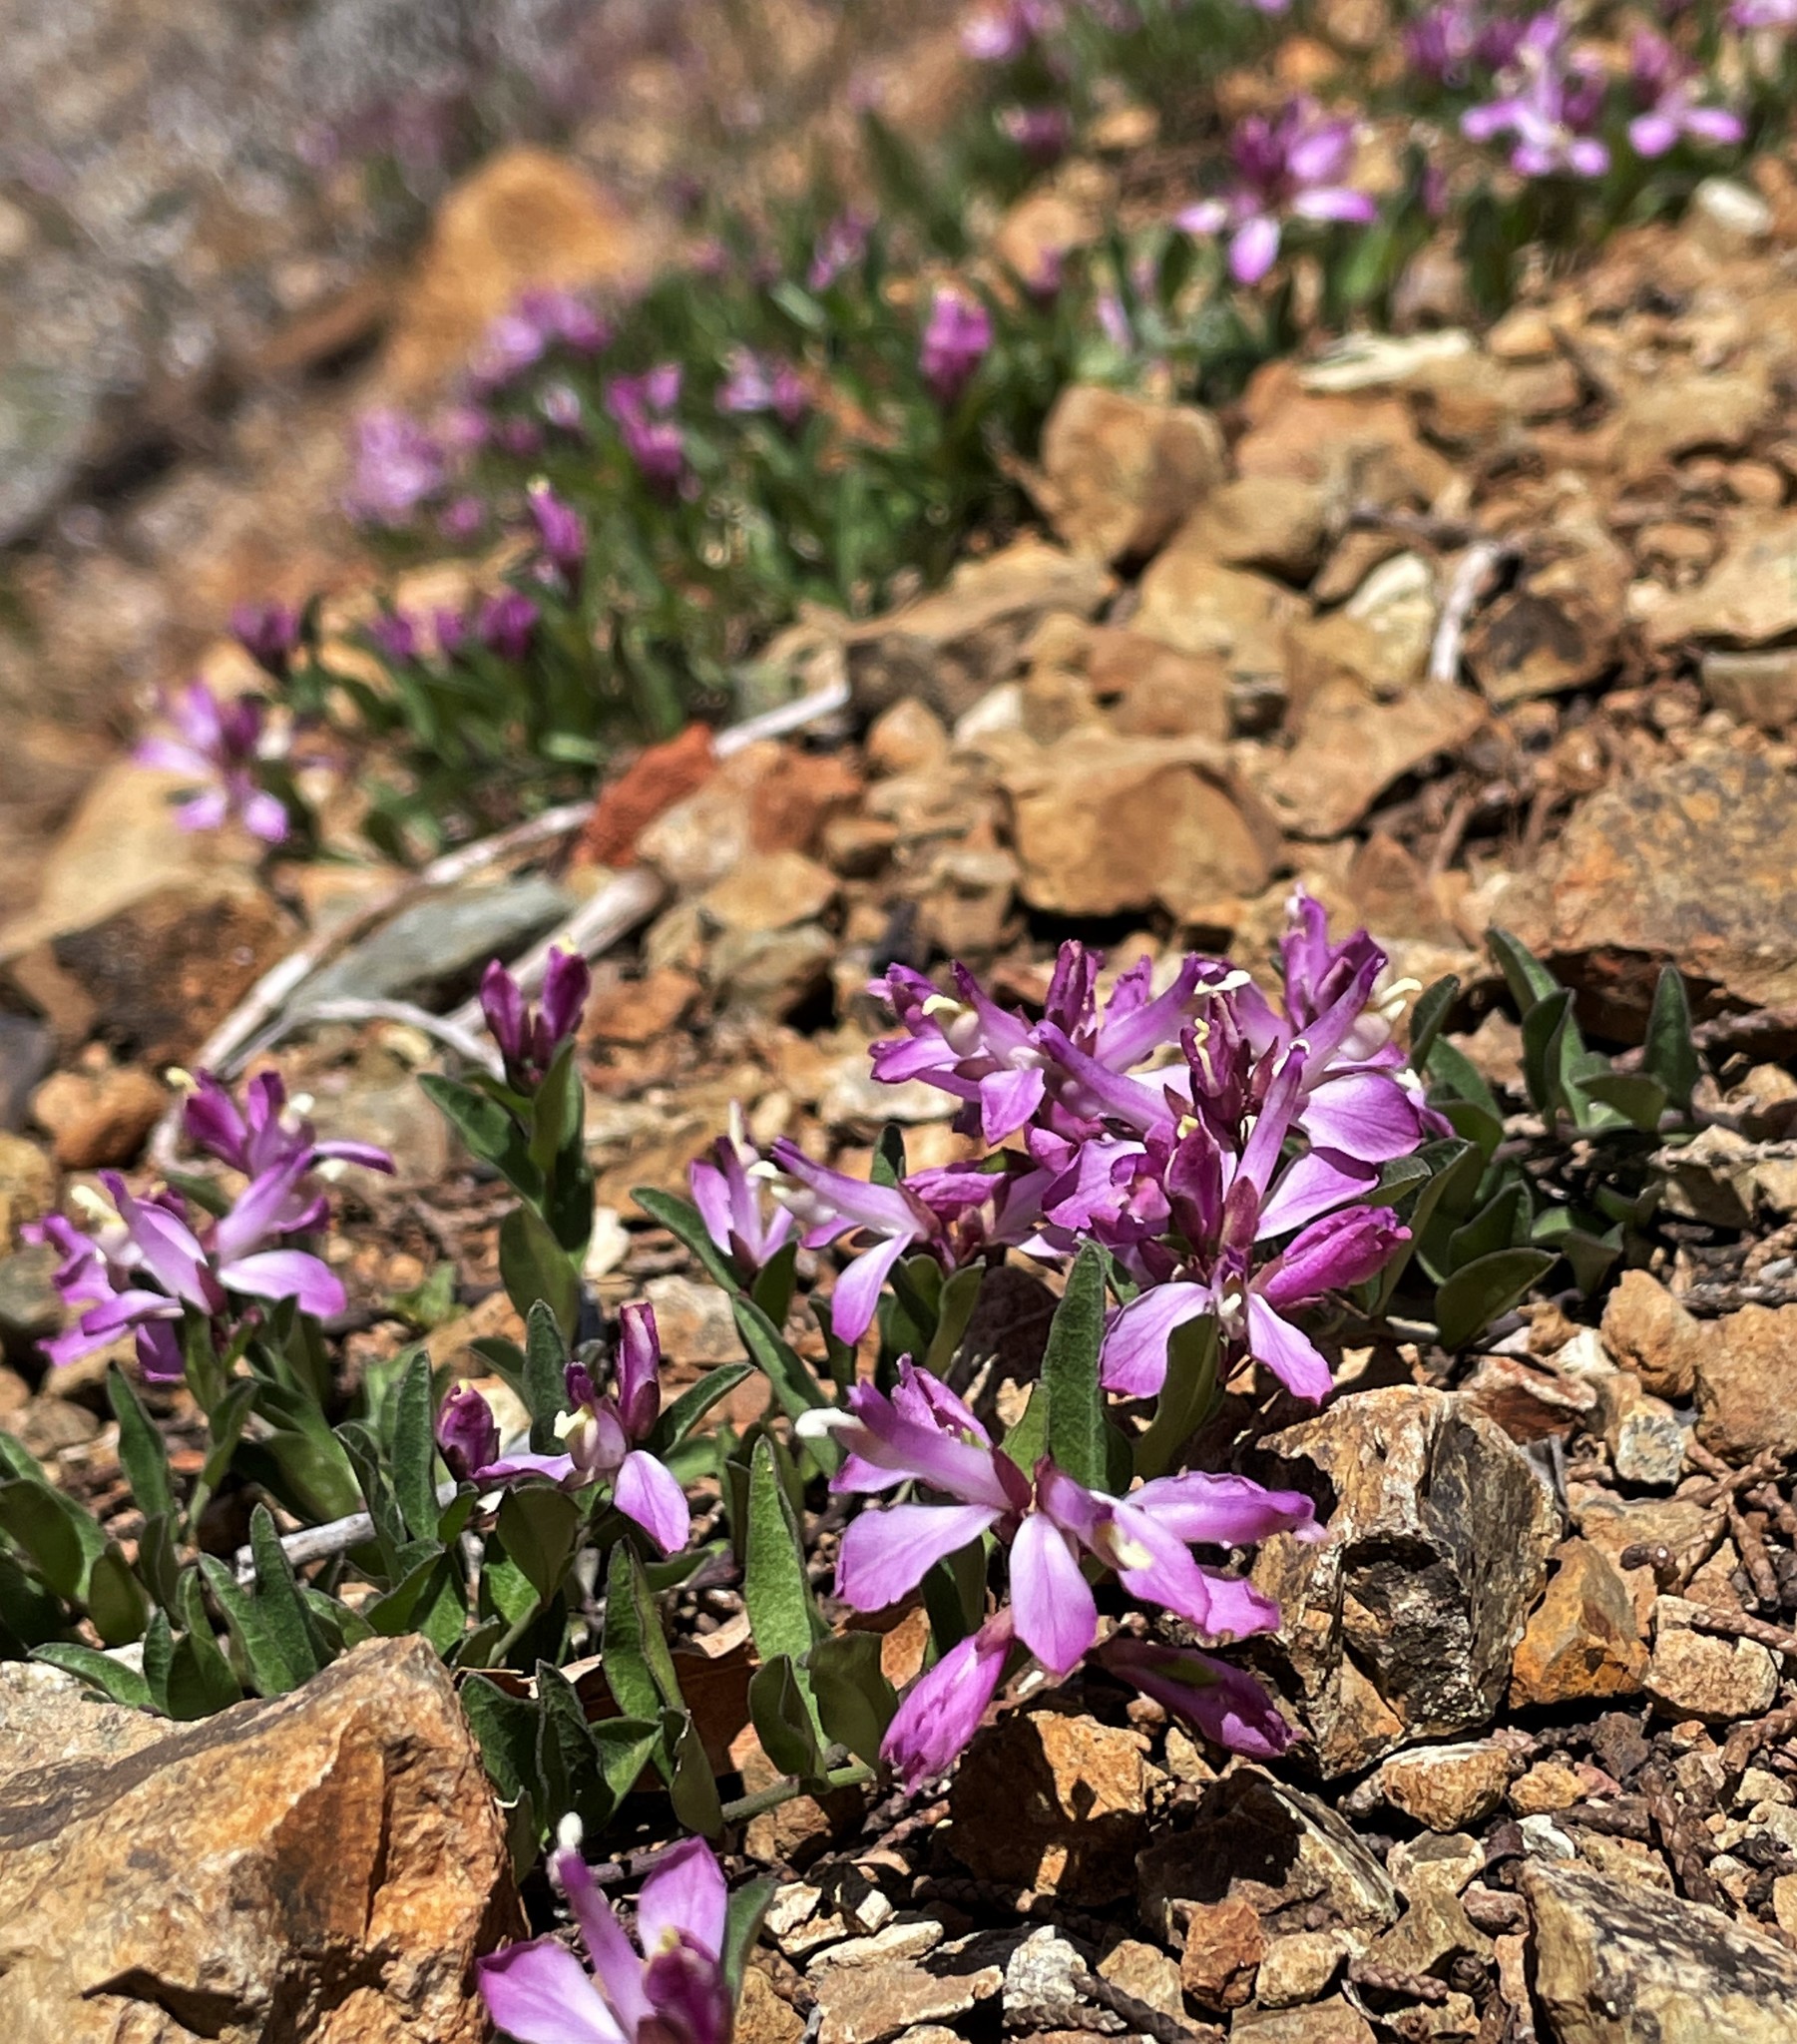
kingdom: Plantae
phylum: Tracheophyta
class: Magnoliopsida
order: Fabales
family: Polygalaceae
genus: Rhinotropis
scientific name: Rhinotropis californica
